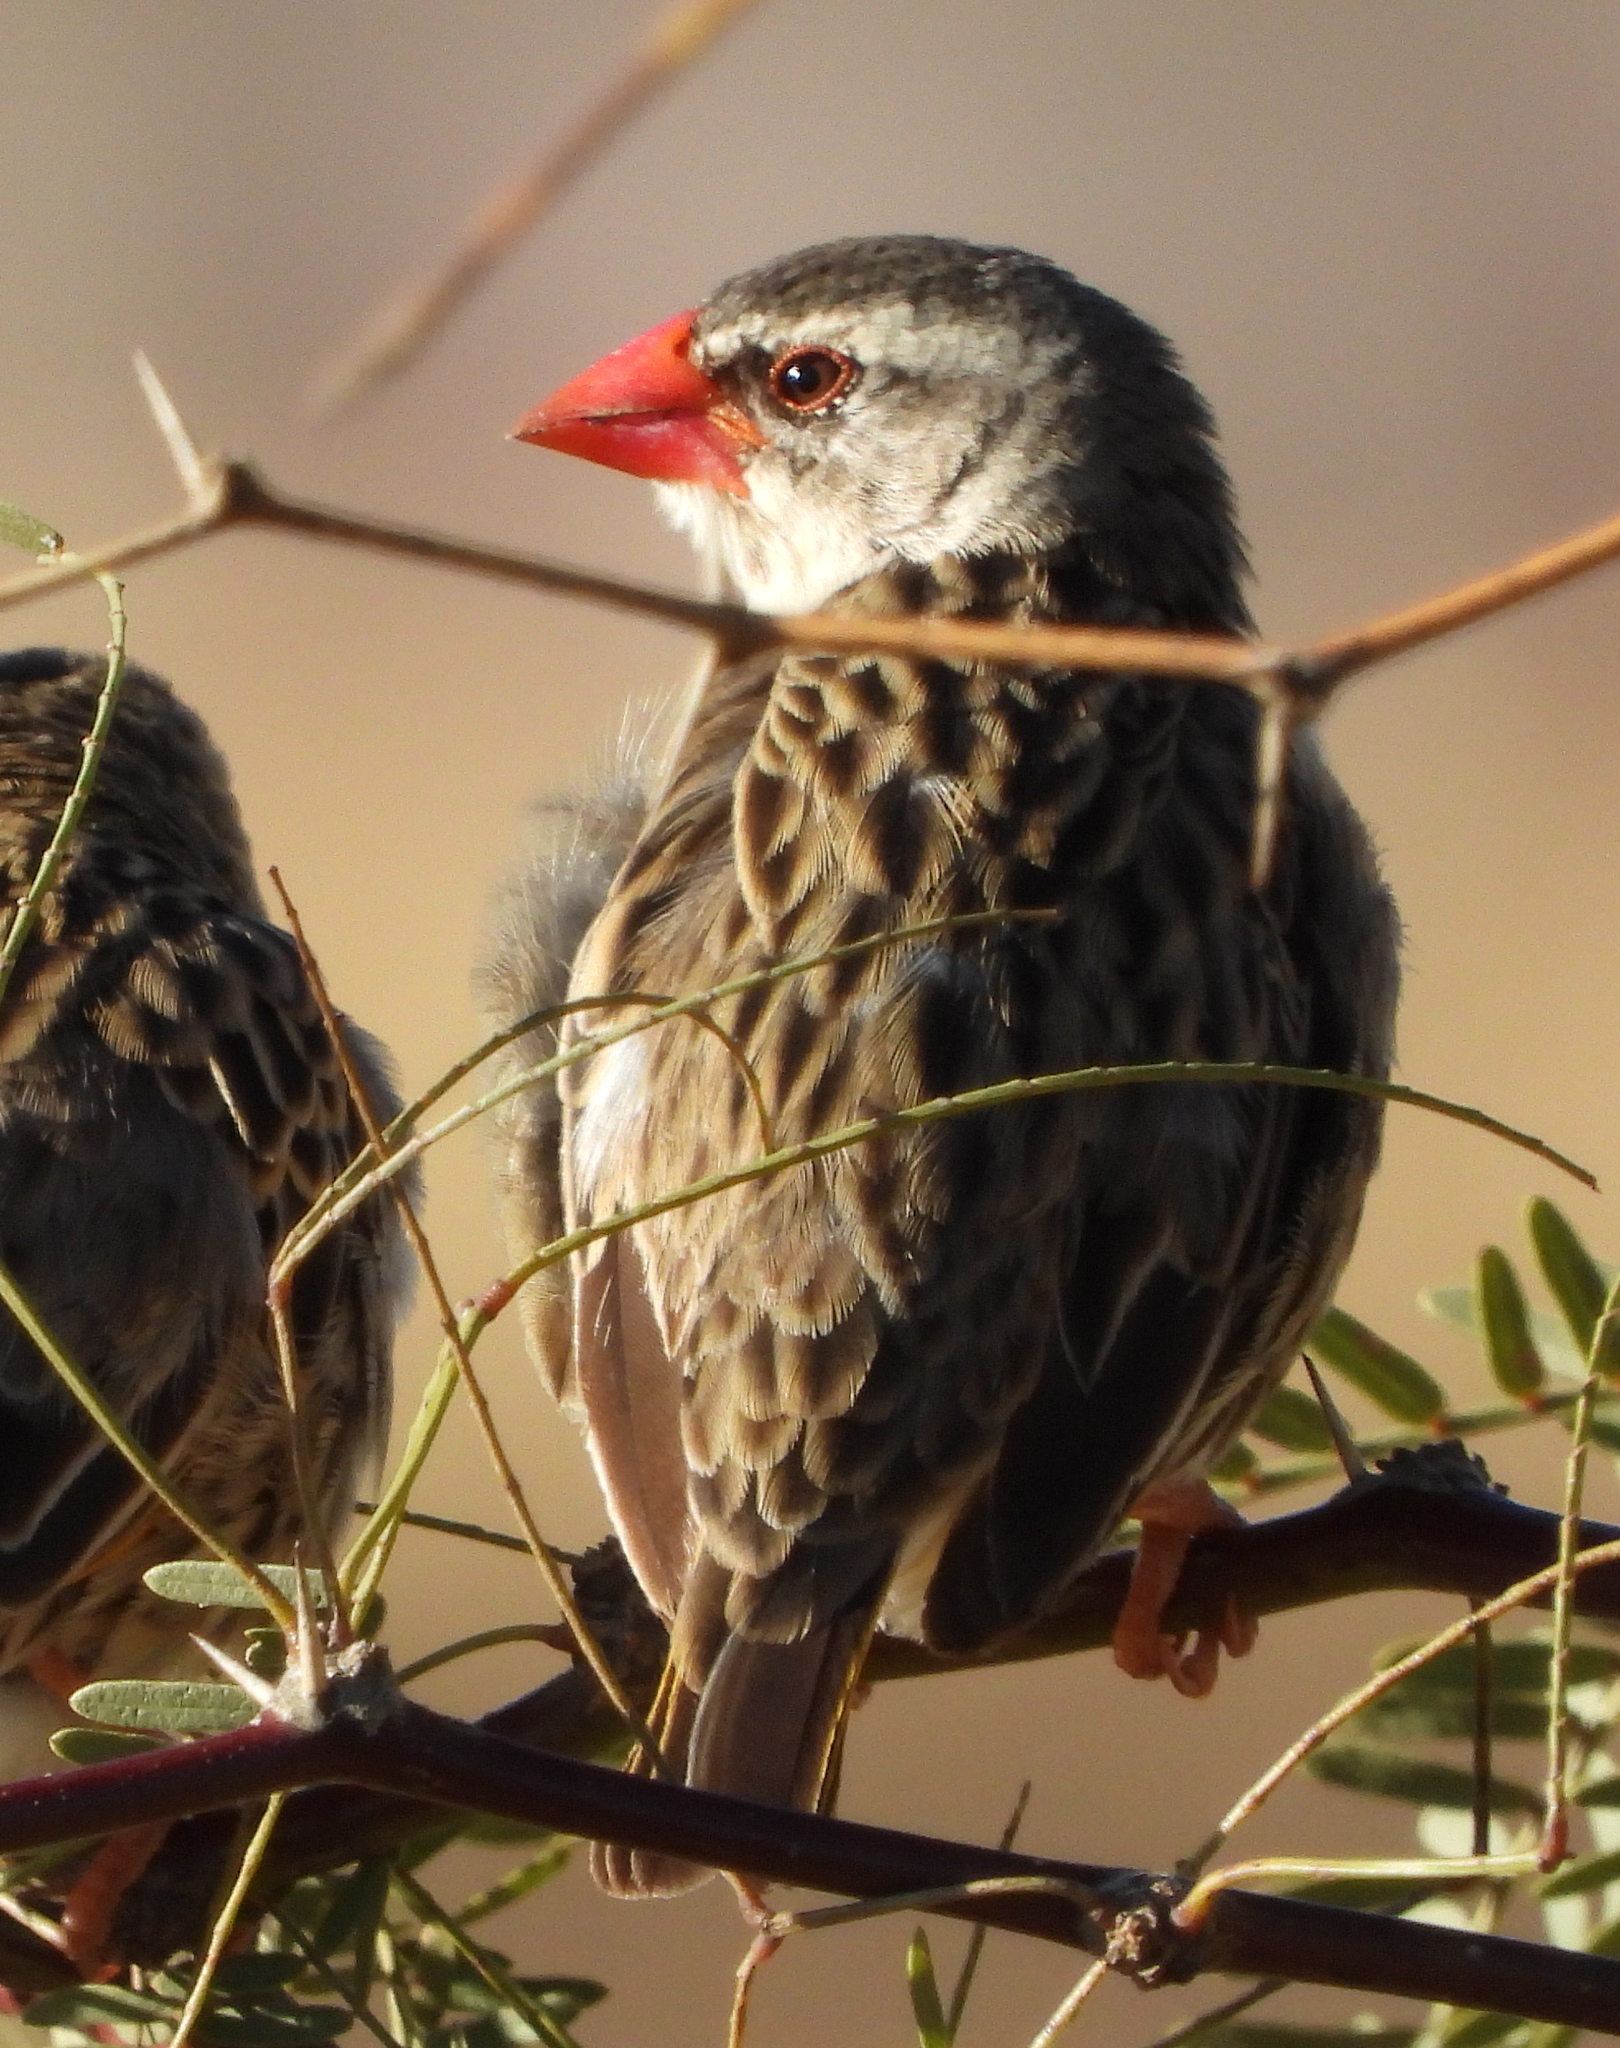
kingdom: Animalia
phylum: Chordata
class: Aves
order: Passeriformes
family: Ploceidae
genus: Quelea
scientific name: Quelea quelea
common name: Red-billed quelea
